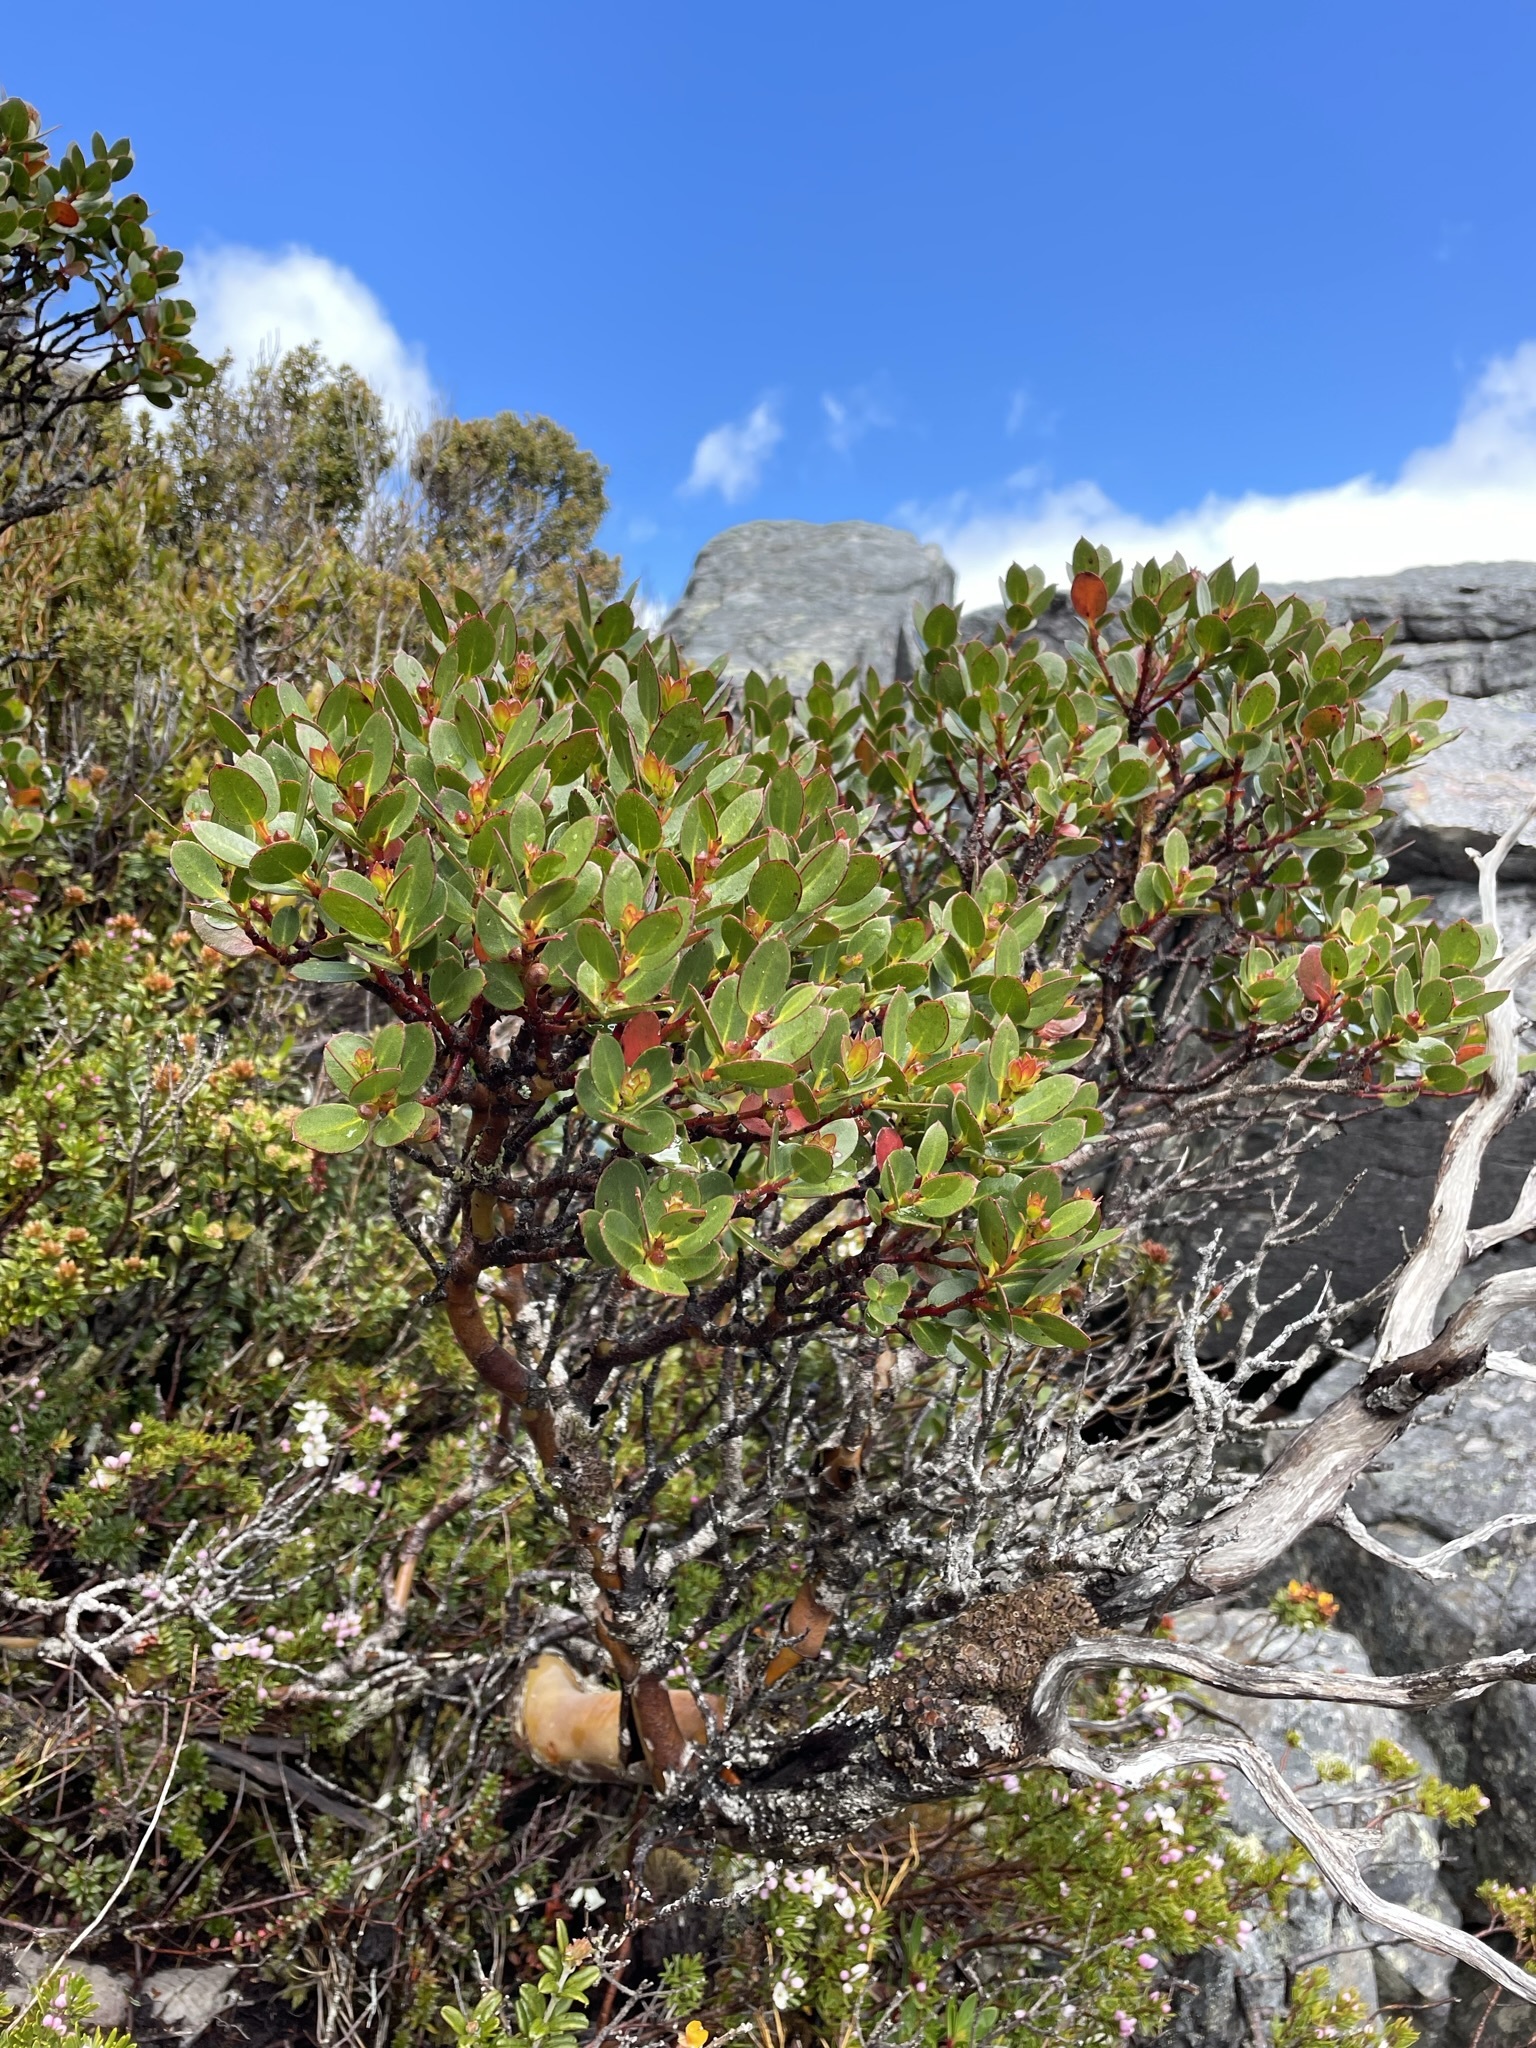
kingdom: Plantae
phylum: Tracheophyta
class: Magnoliopsida
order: Myrtales
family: Myrtaceae
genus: Eucalyptus
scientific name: Eucalyptus vernicosa
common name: Varnished gum
